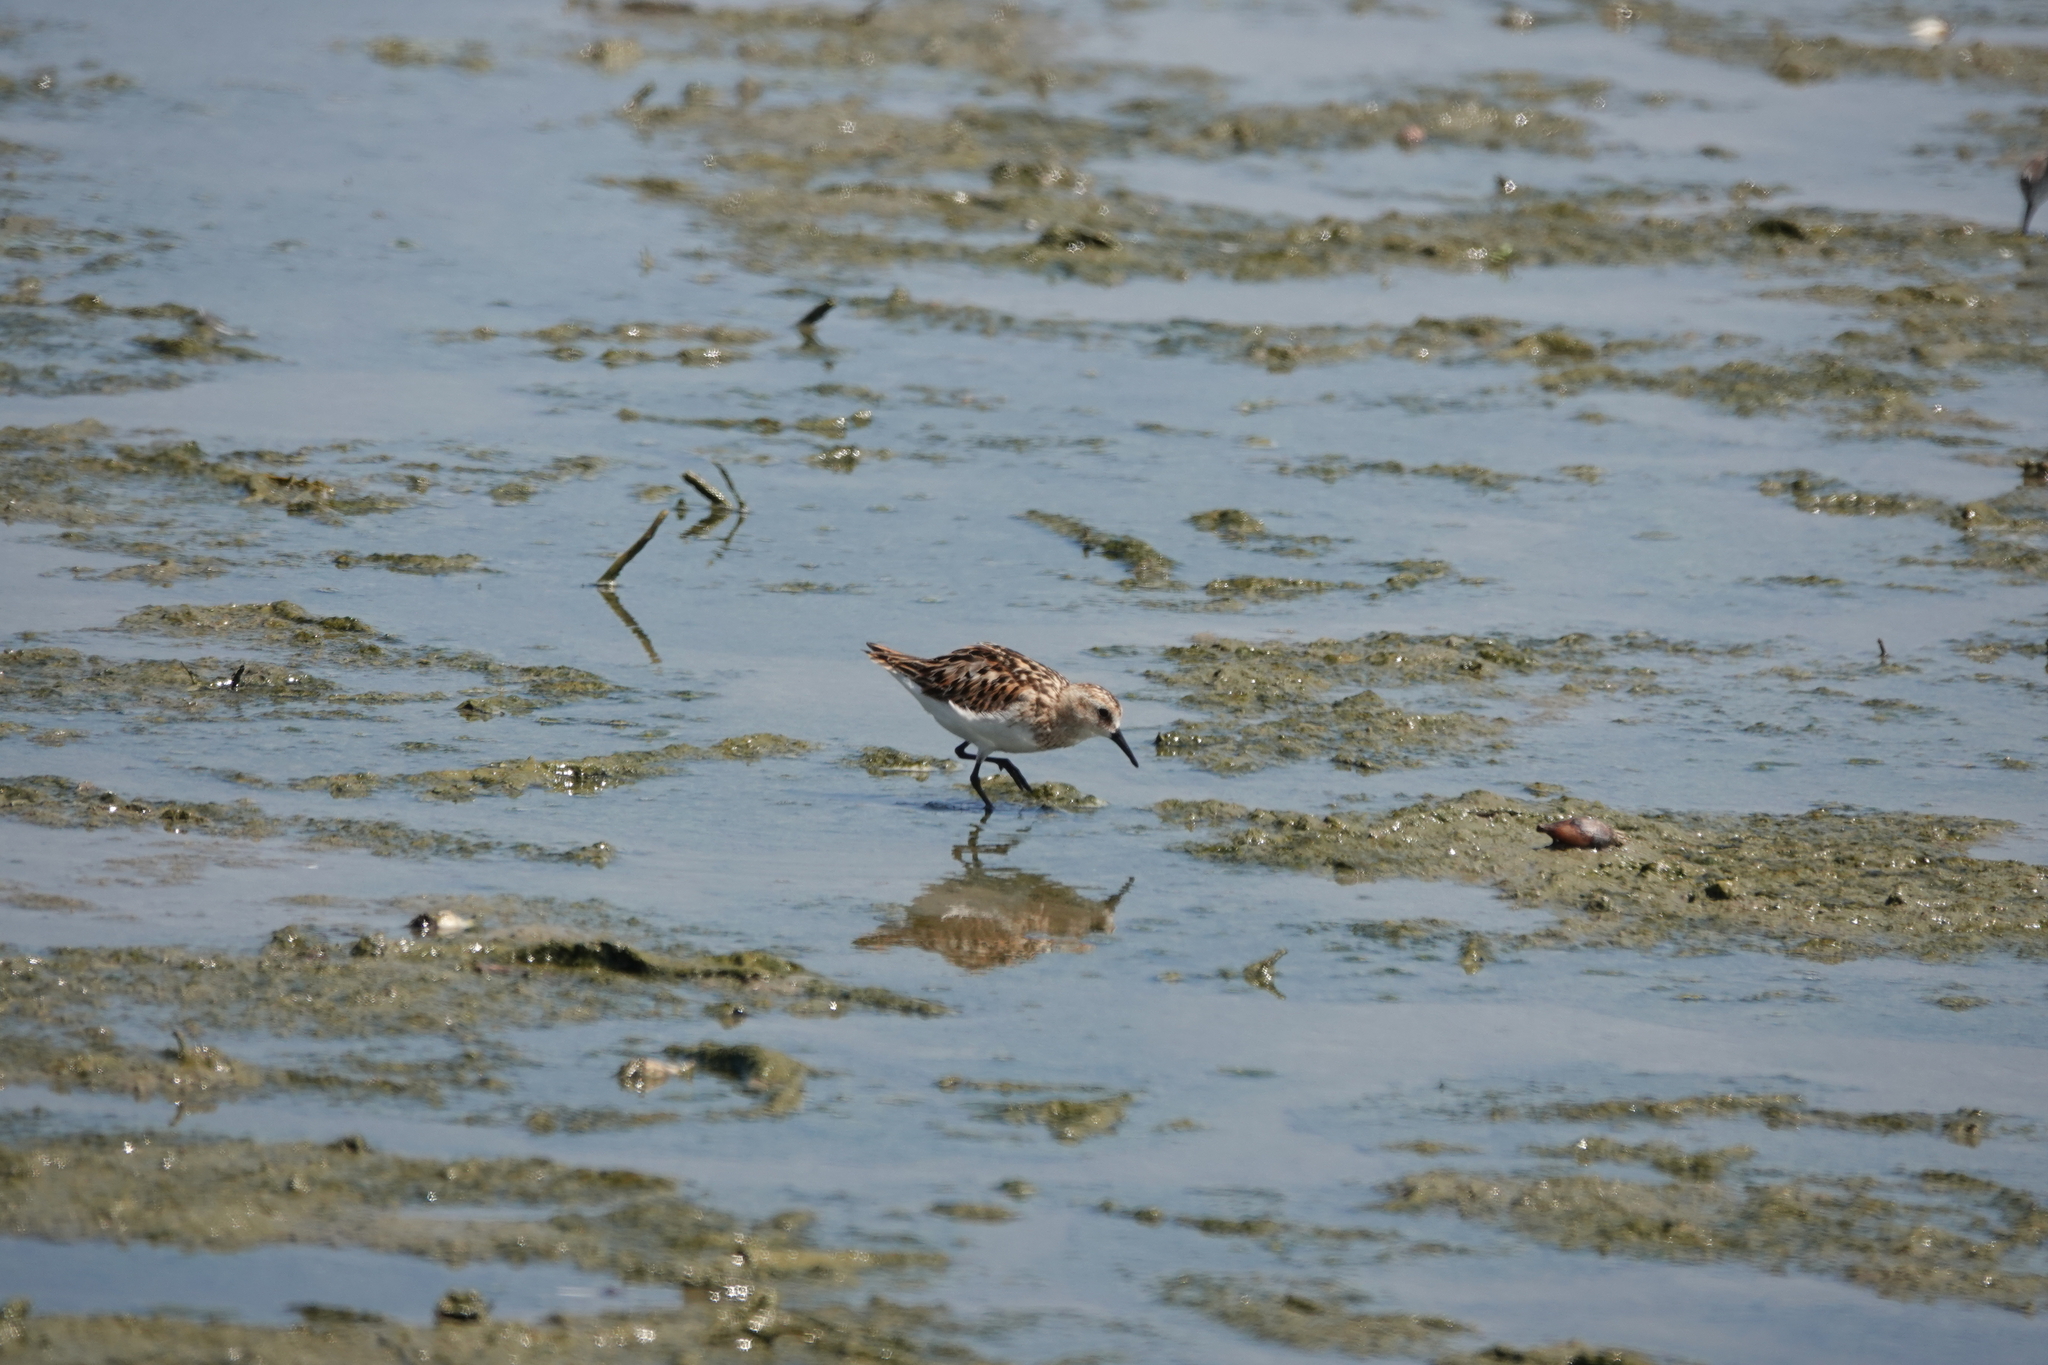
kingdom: Animalia
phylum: Chordata
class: Aves
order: Charadriiformes
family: Scolopacidae
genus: Calidris
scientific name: Calidris ruficollis
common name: Red-necked stint
